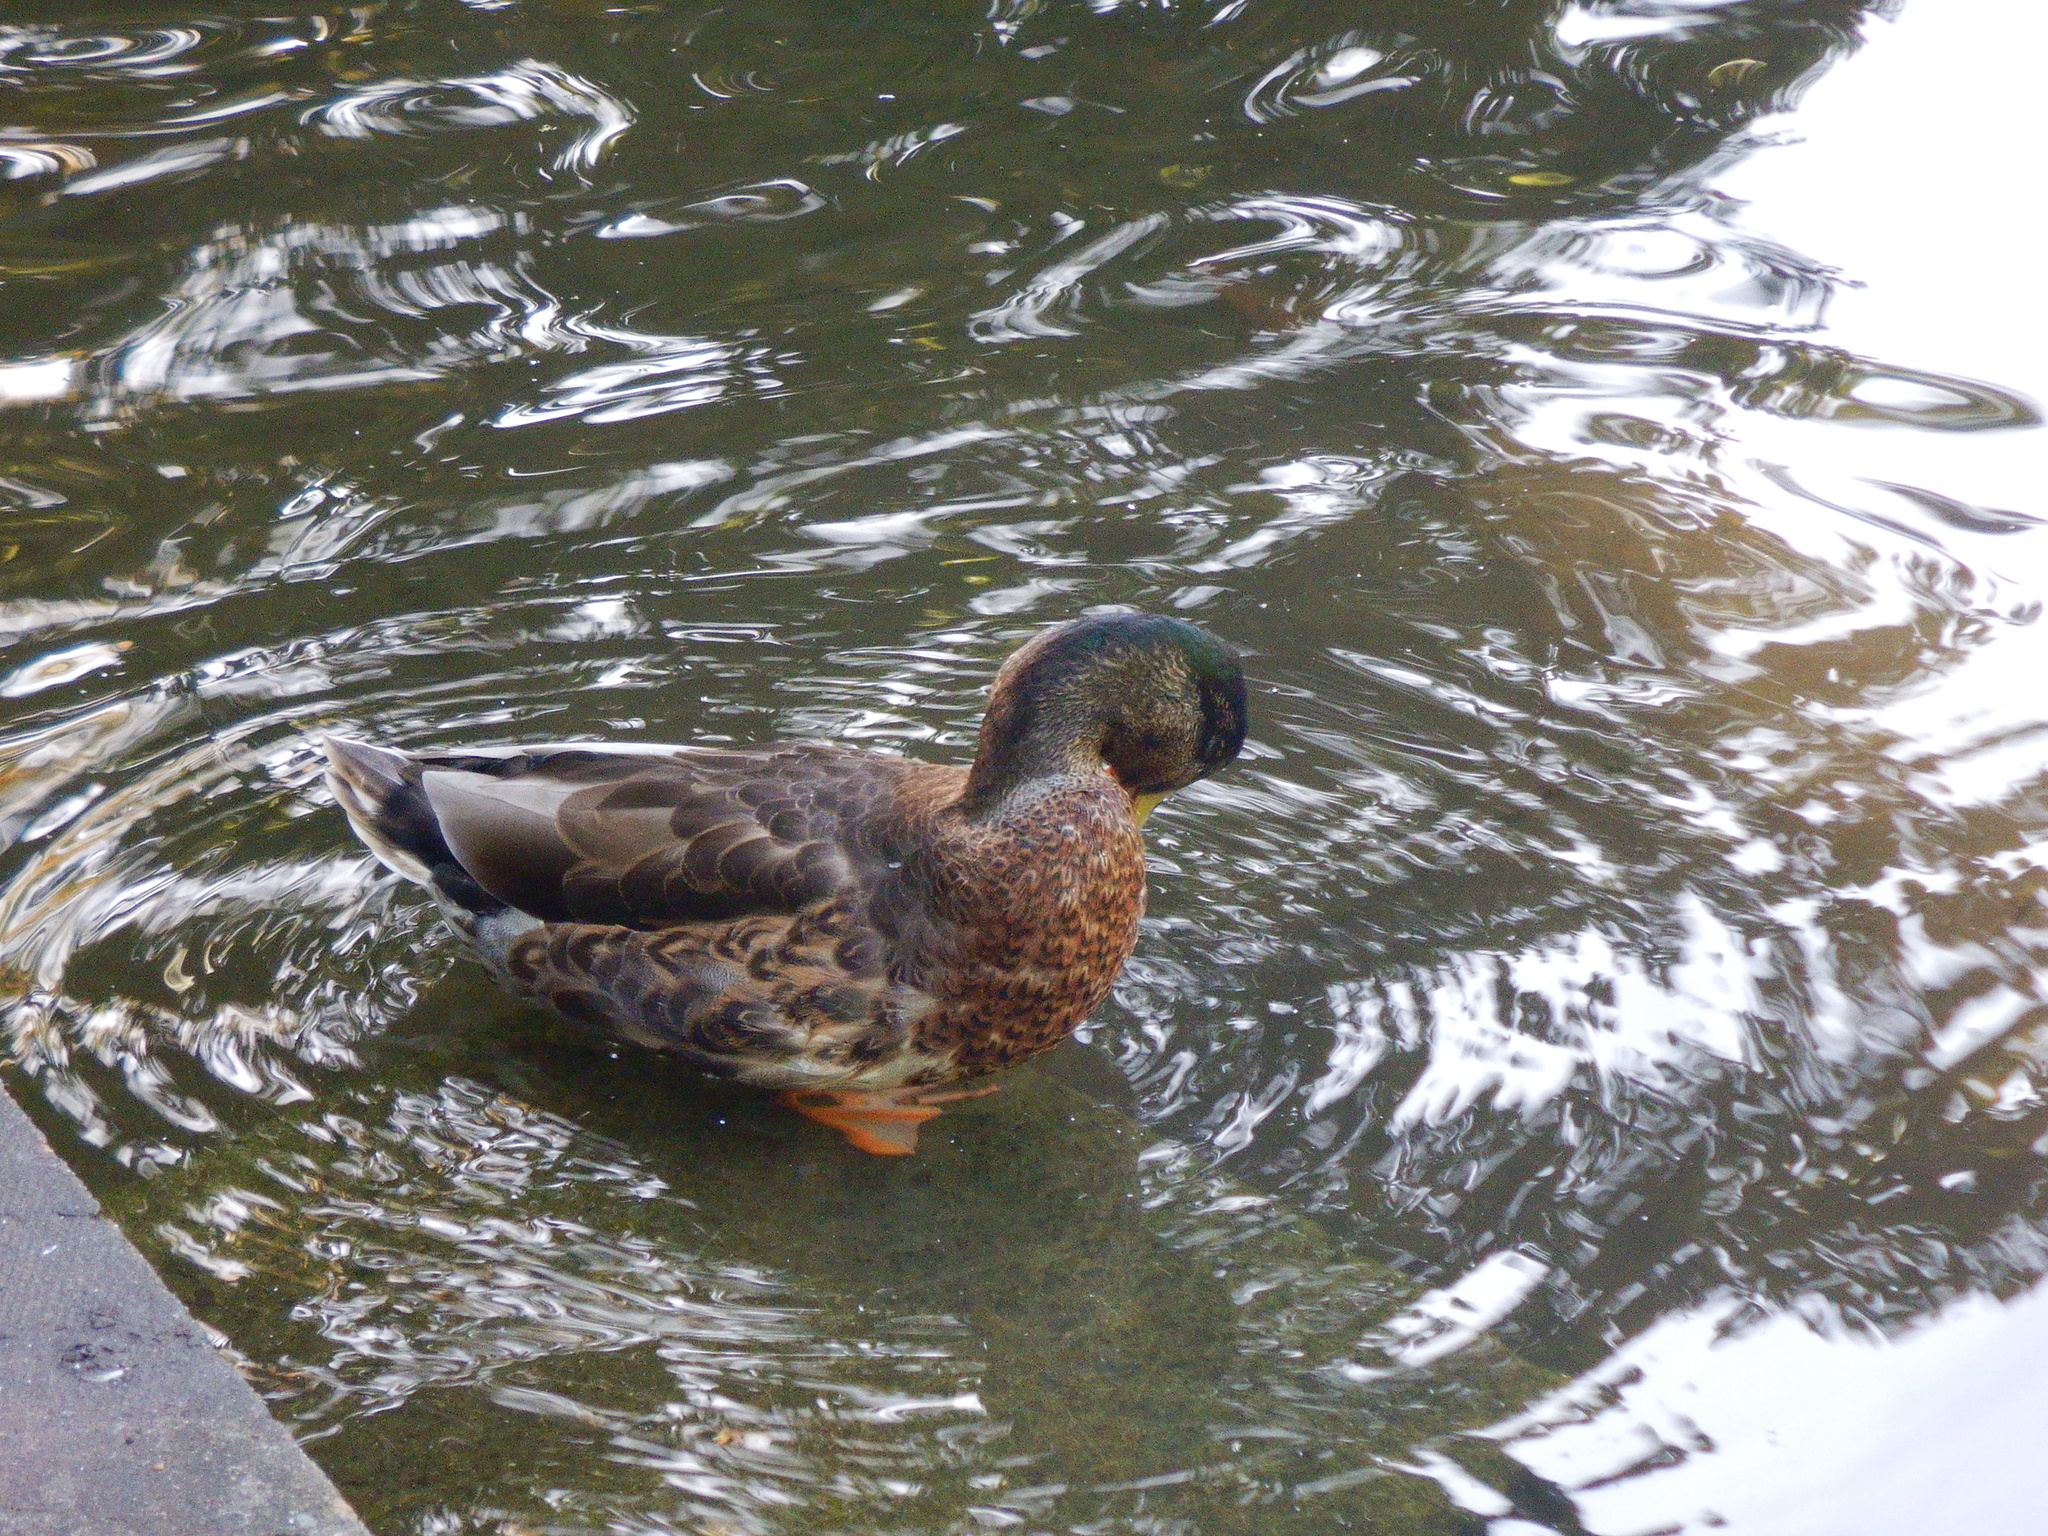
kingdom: Animalia
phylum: Chordata
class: Aves
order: Anseriformes
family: Anatidae
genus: Anas
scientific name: Anas platyrhynchos
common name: Mallard
